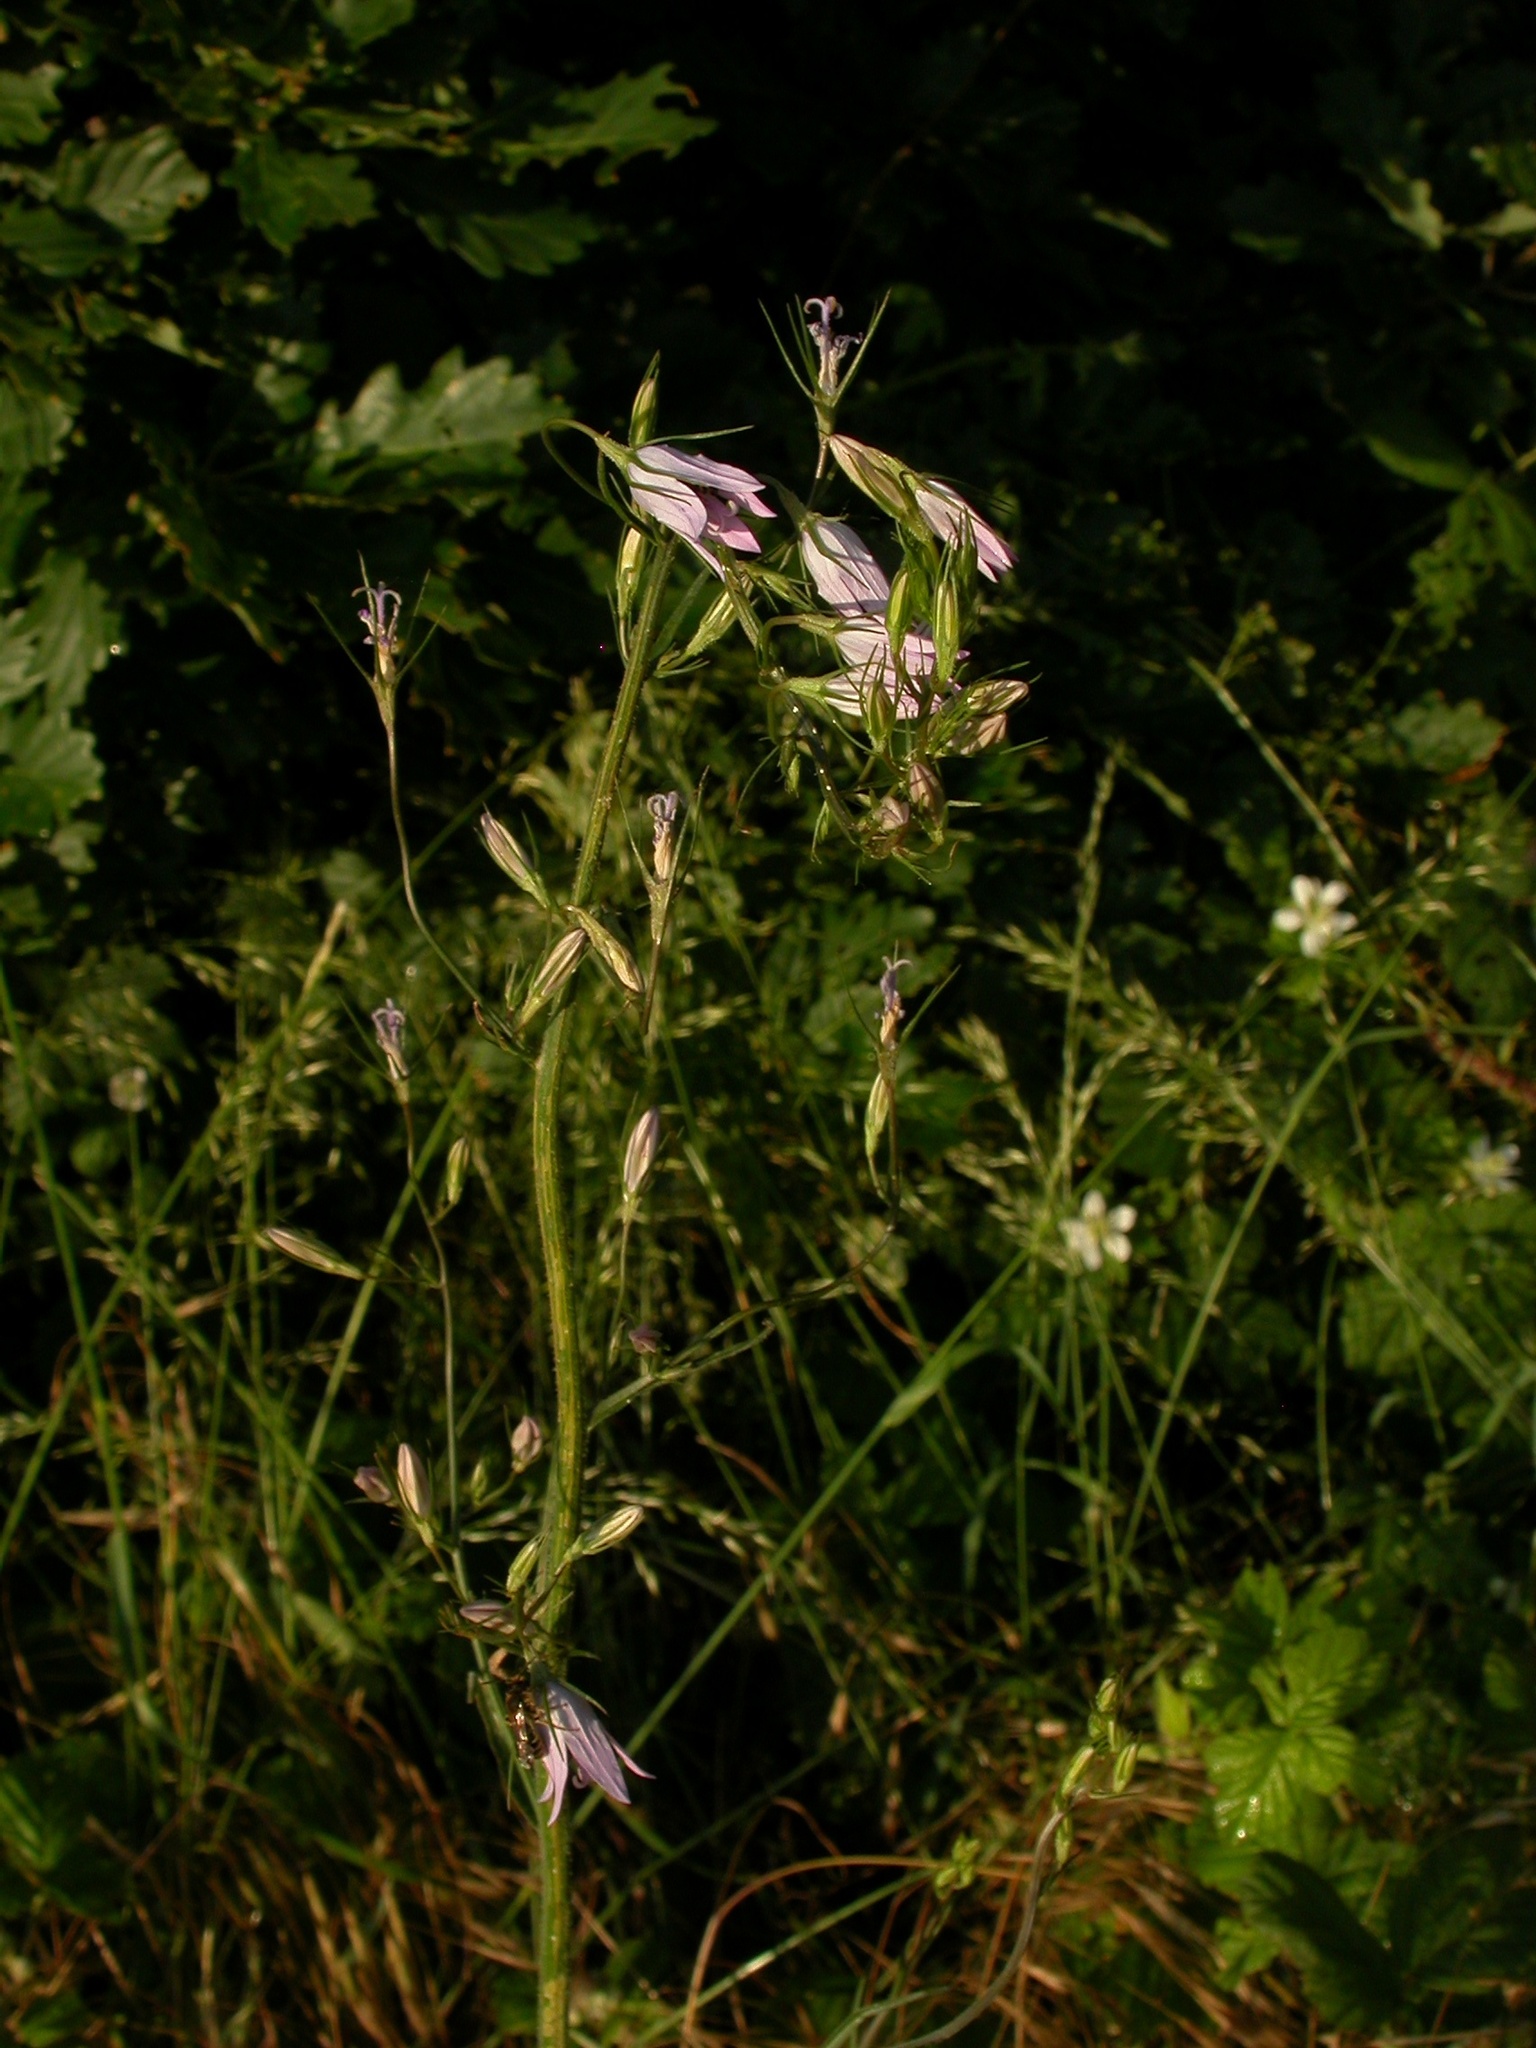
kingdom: Plantae
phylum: Tracheophyta
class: Magnoliopsida
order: Asterales
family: Campanulaceae
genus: Campanula
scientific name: Campanula rapunculus
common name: Rampion bellflower
